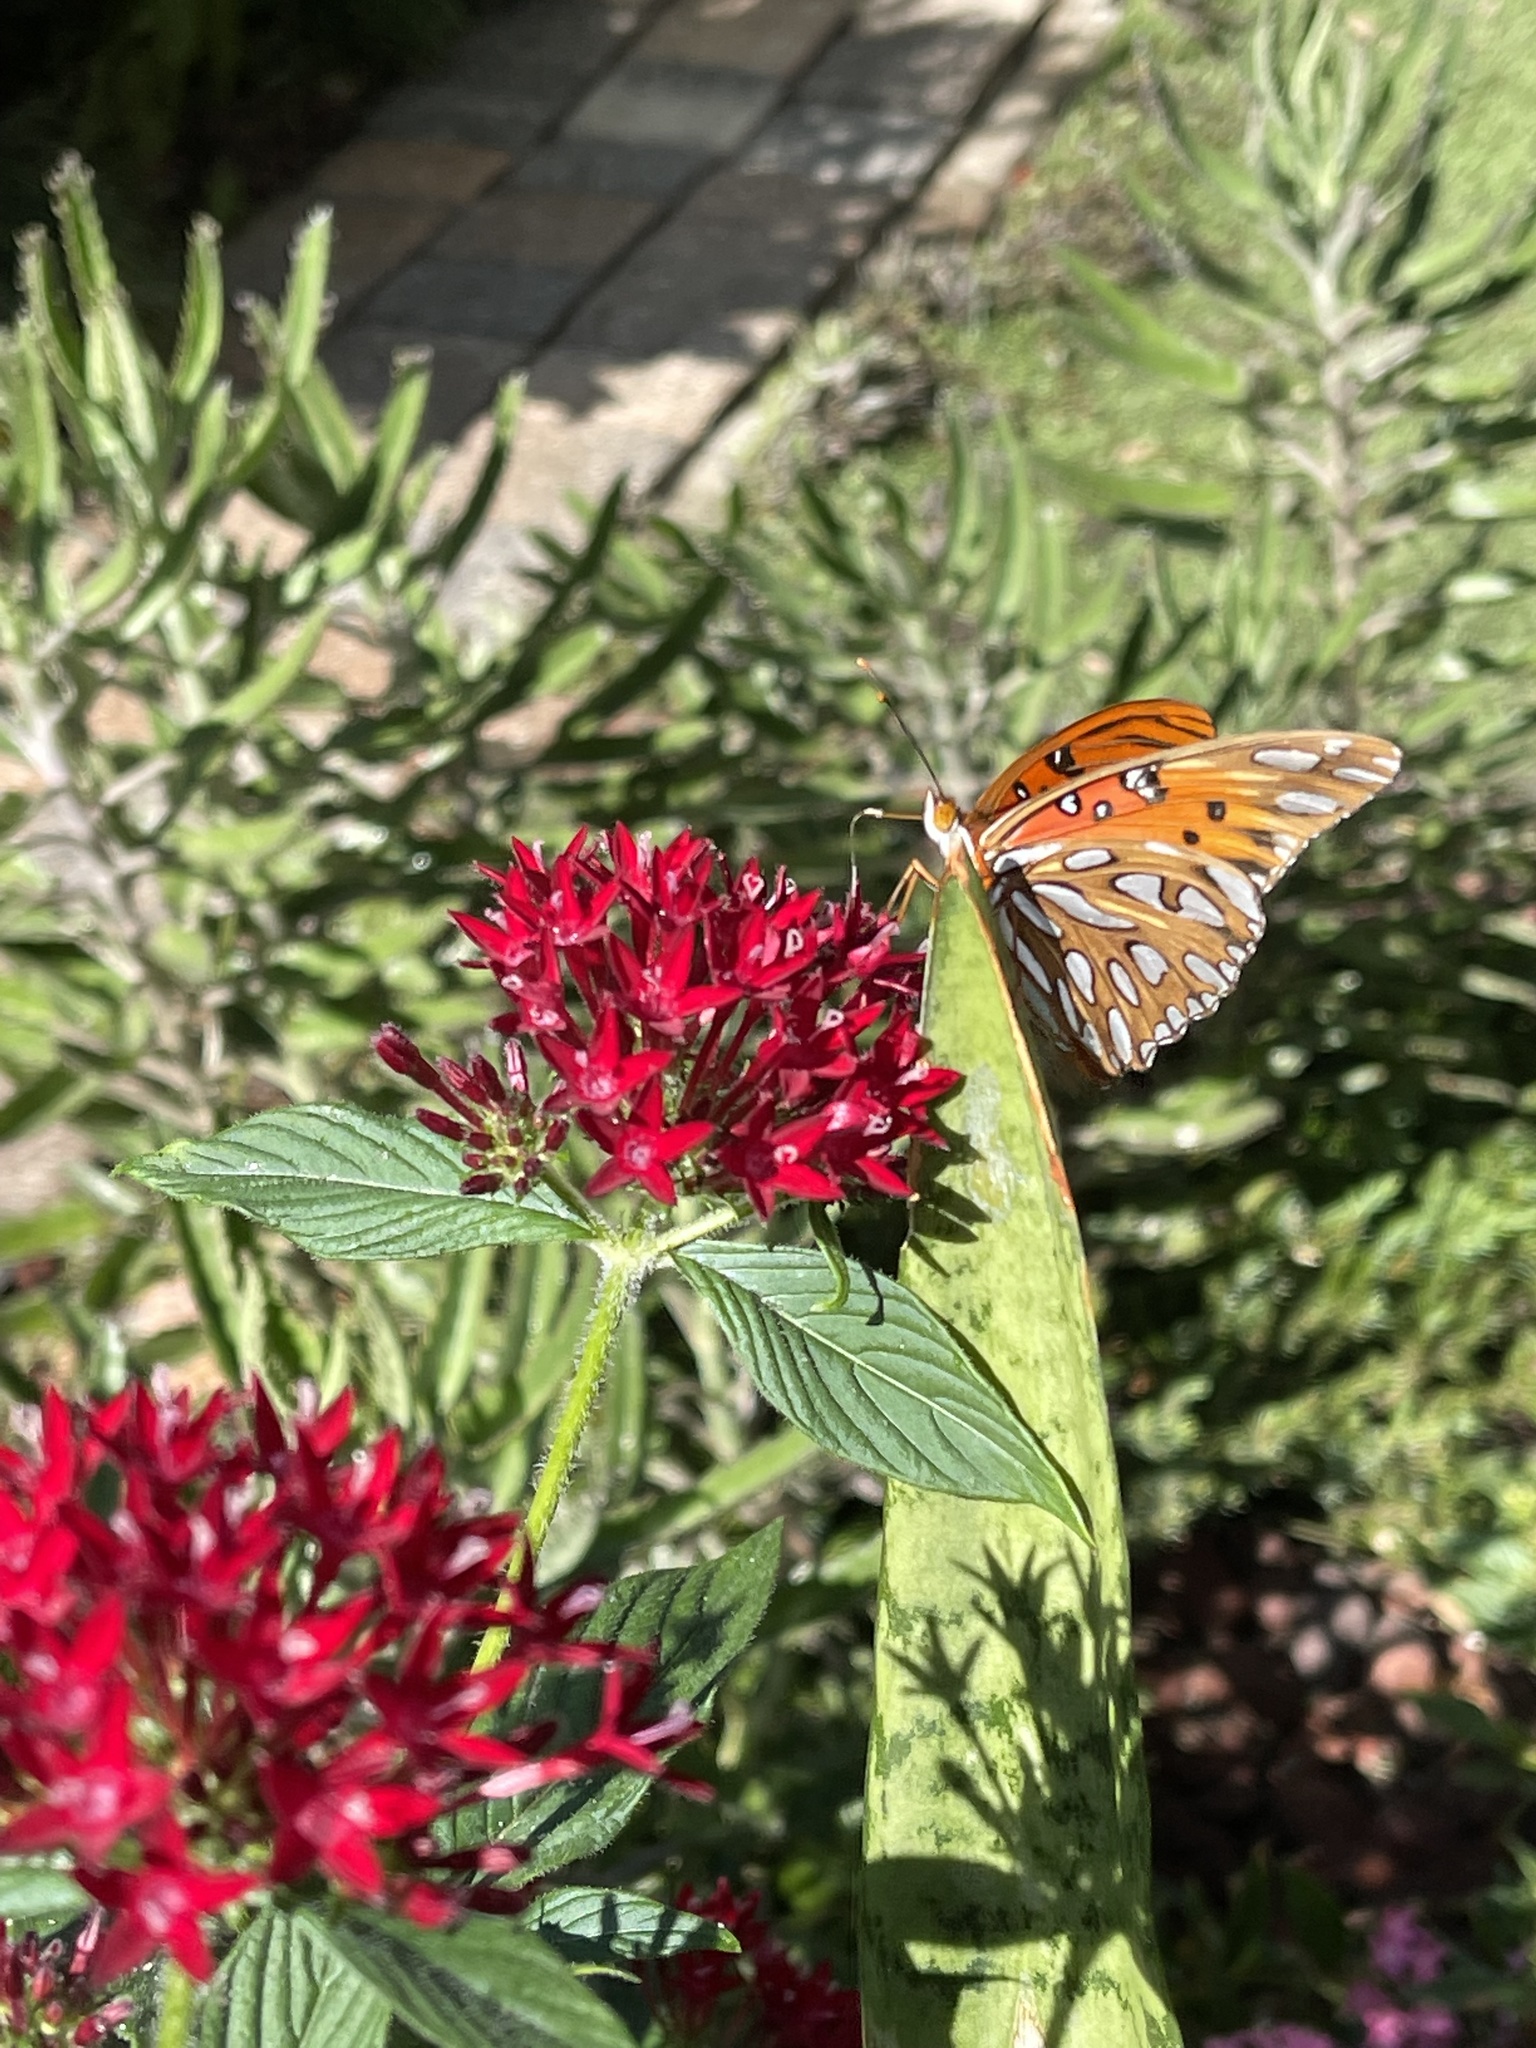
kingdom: Animalia
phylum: Arthropoda
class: Insecta
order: Lepidoptera
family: Nymphalidae
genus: Dione
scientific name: Dione vanillae
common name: Gulf fritillary
